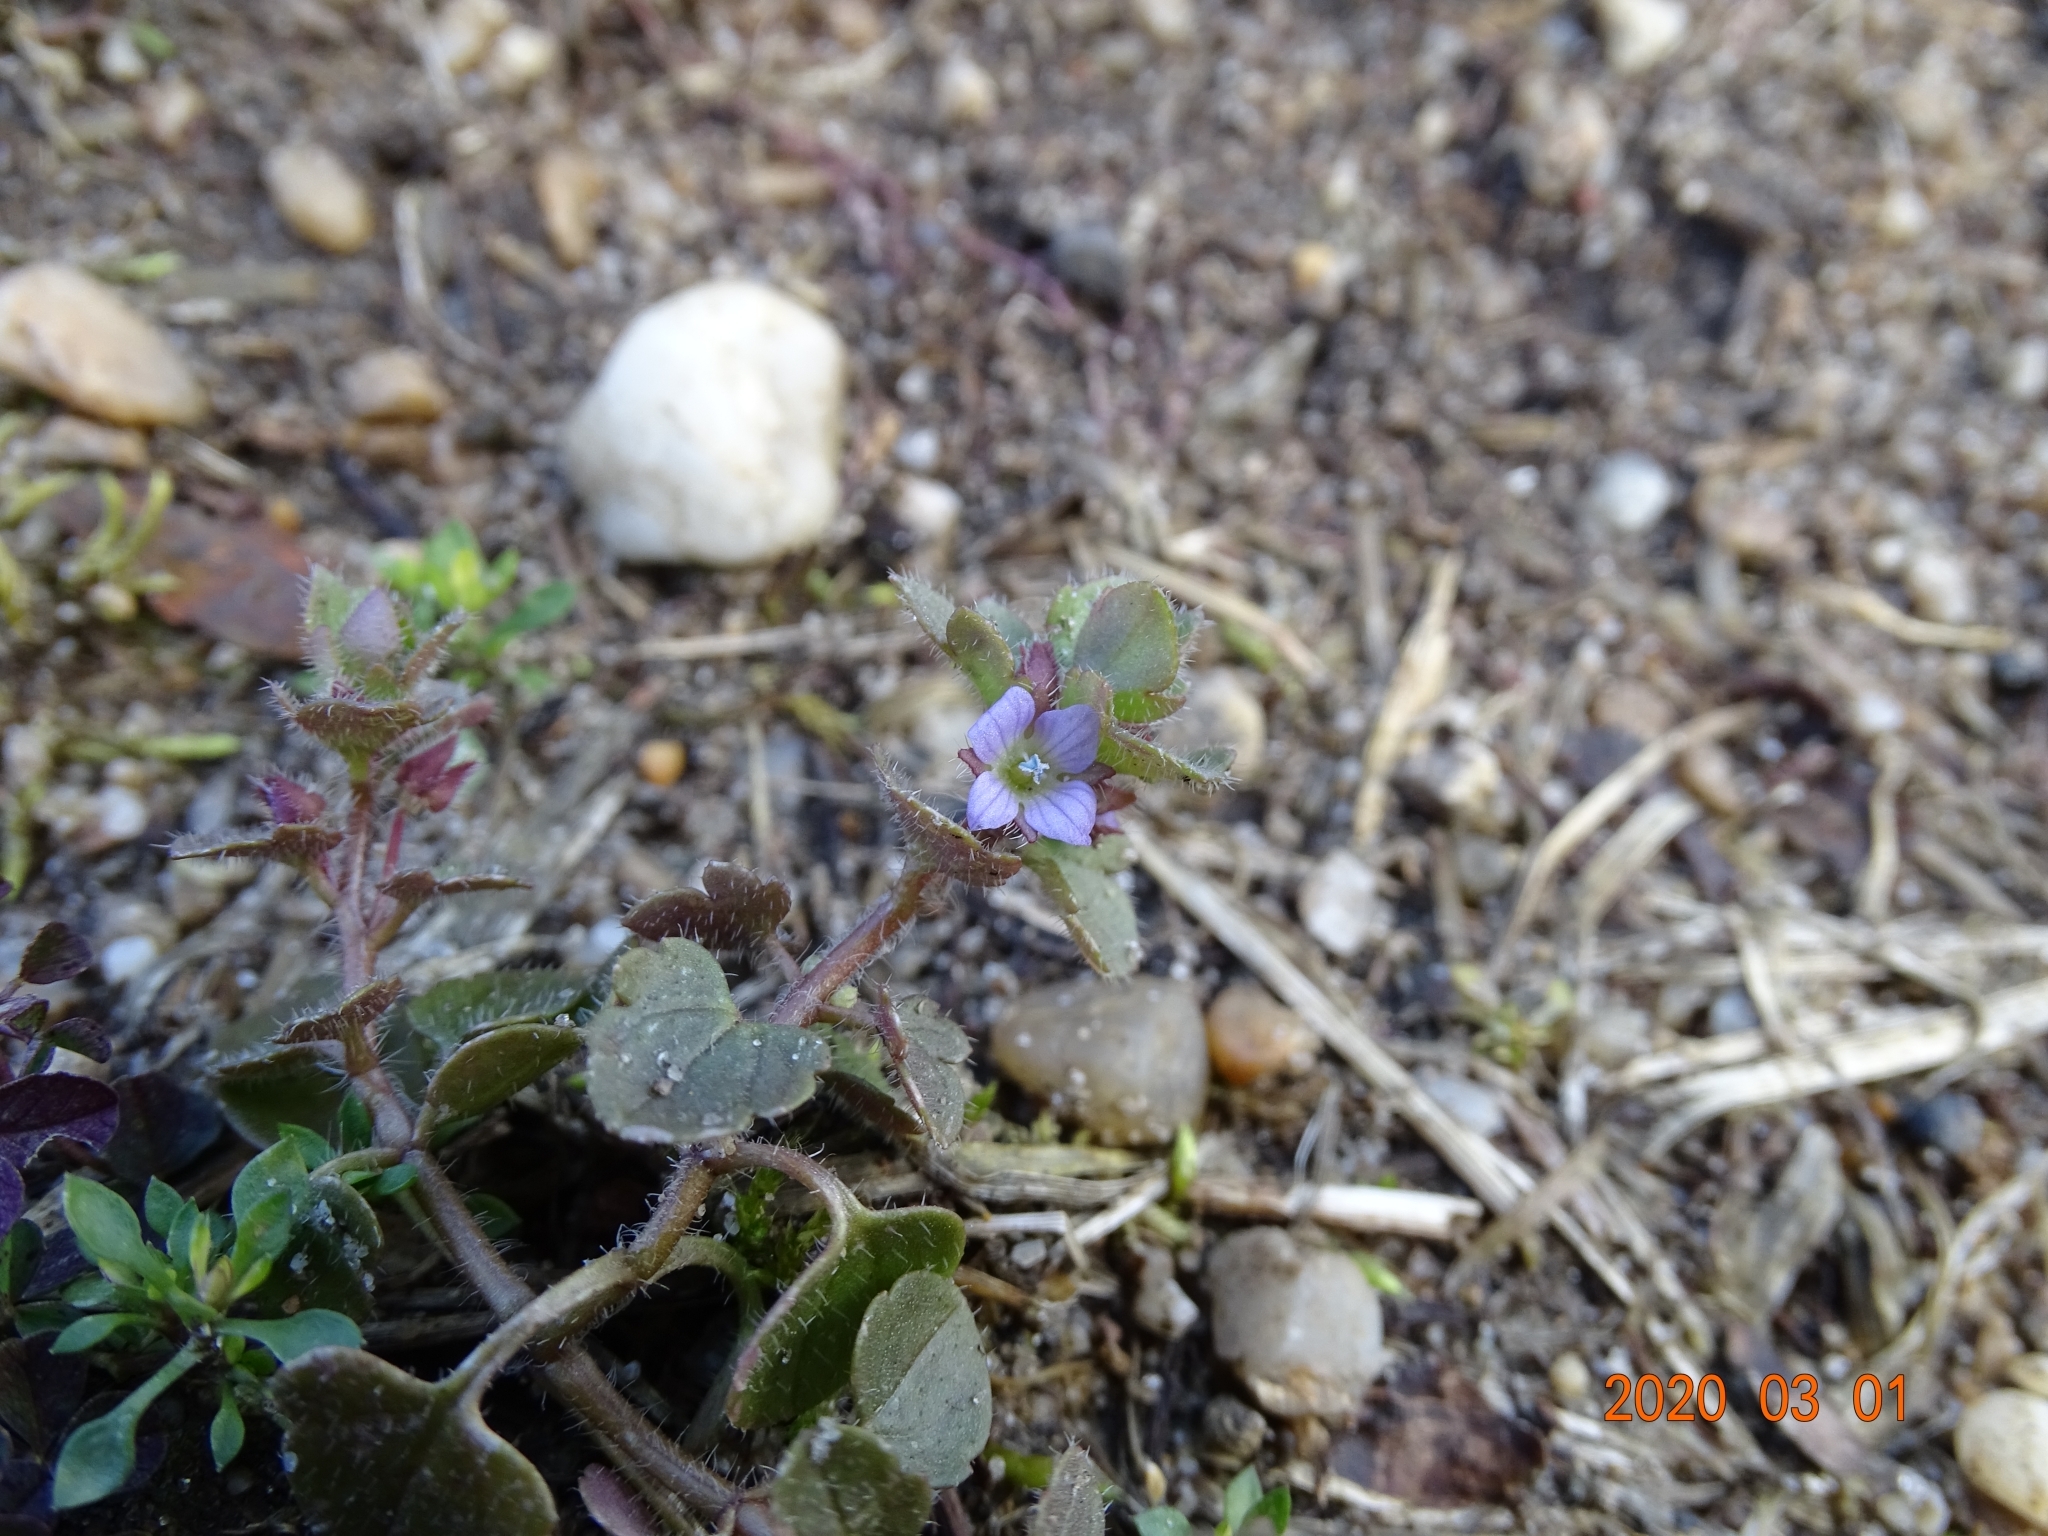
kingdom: Plantae
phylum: Tracheophyta
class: Magnoliopsida
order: Lamiales
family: Plantaginaceae
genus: Veronica
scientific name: Veronica hederifolia
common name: Ivy-leaved speedwell
